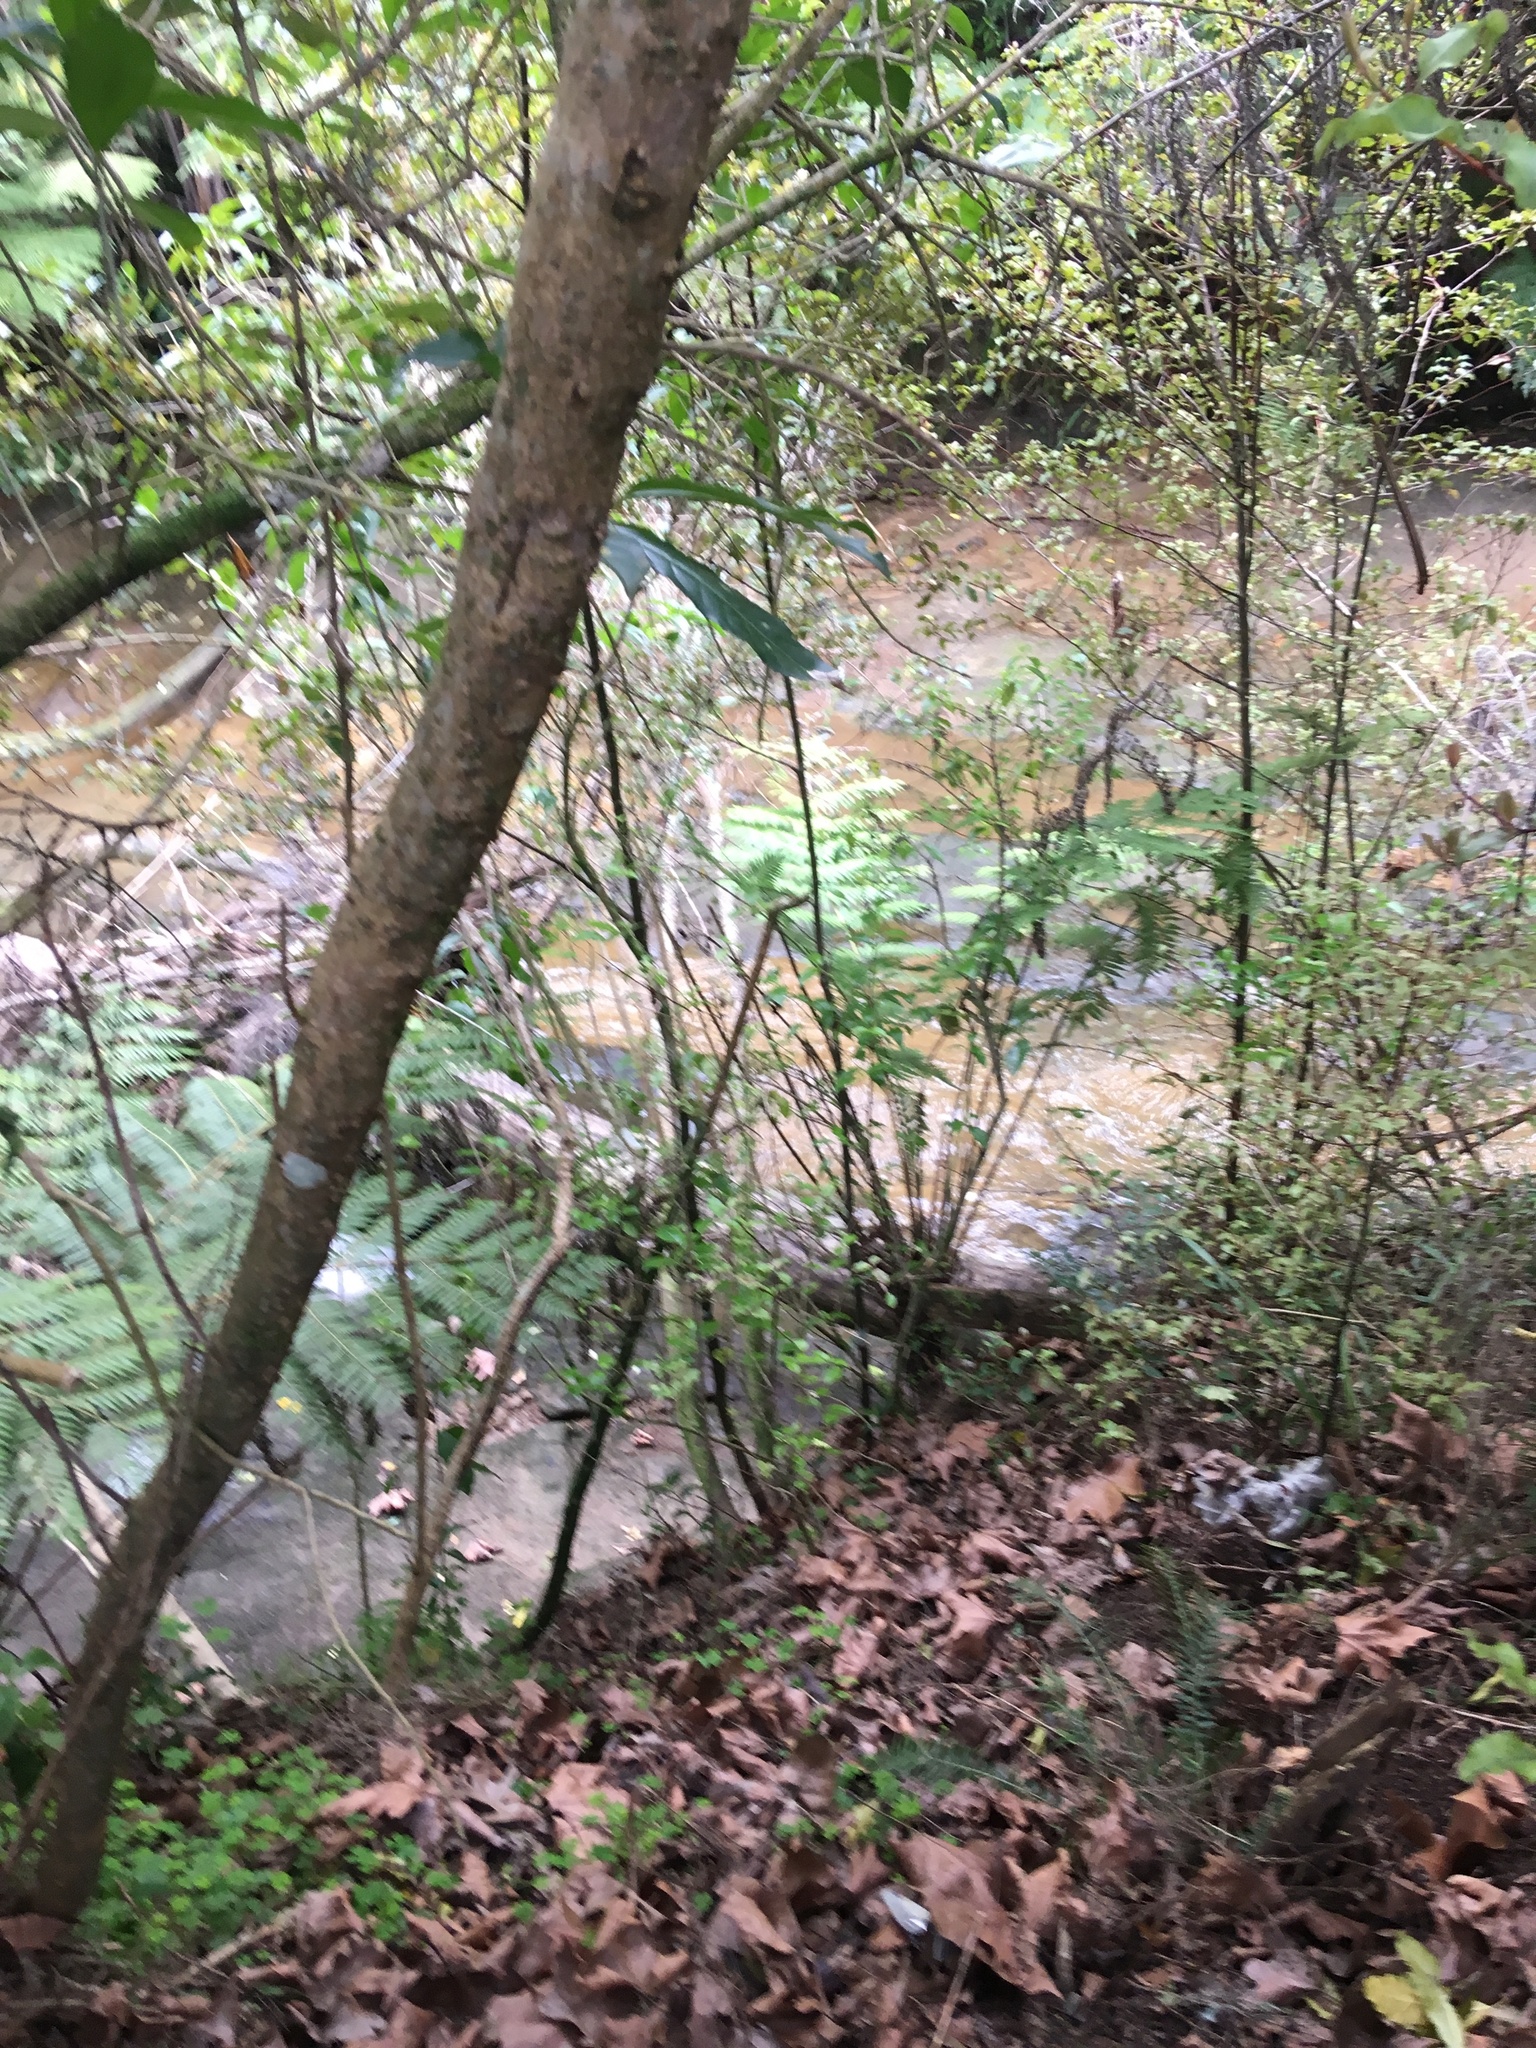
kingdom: Plantae
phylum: Tracheophyta
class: Magnoliopsida
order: Ericales
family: Primulaceae
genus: Myrsine
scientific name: Myrsine australis
